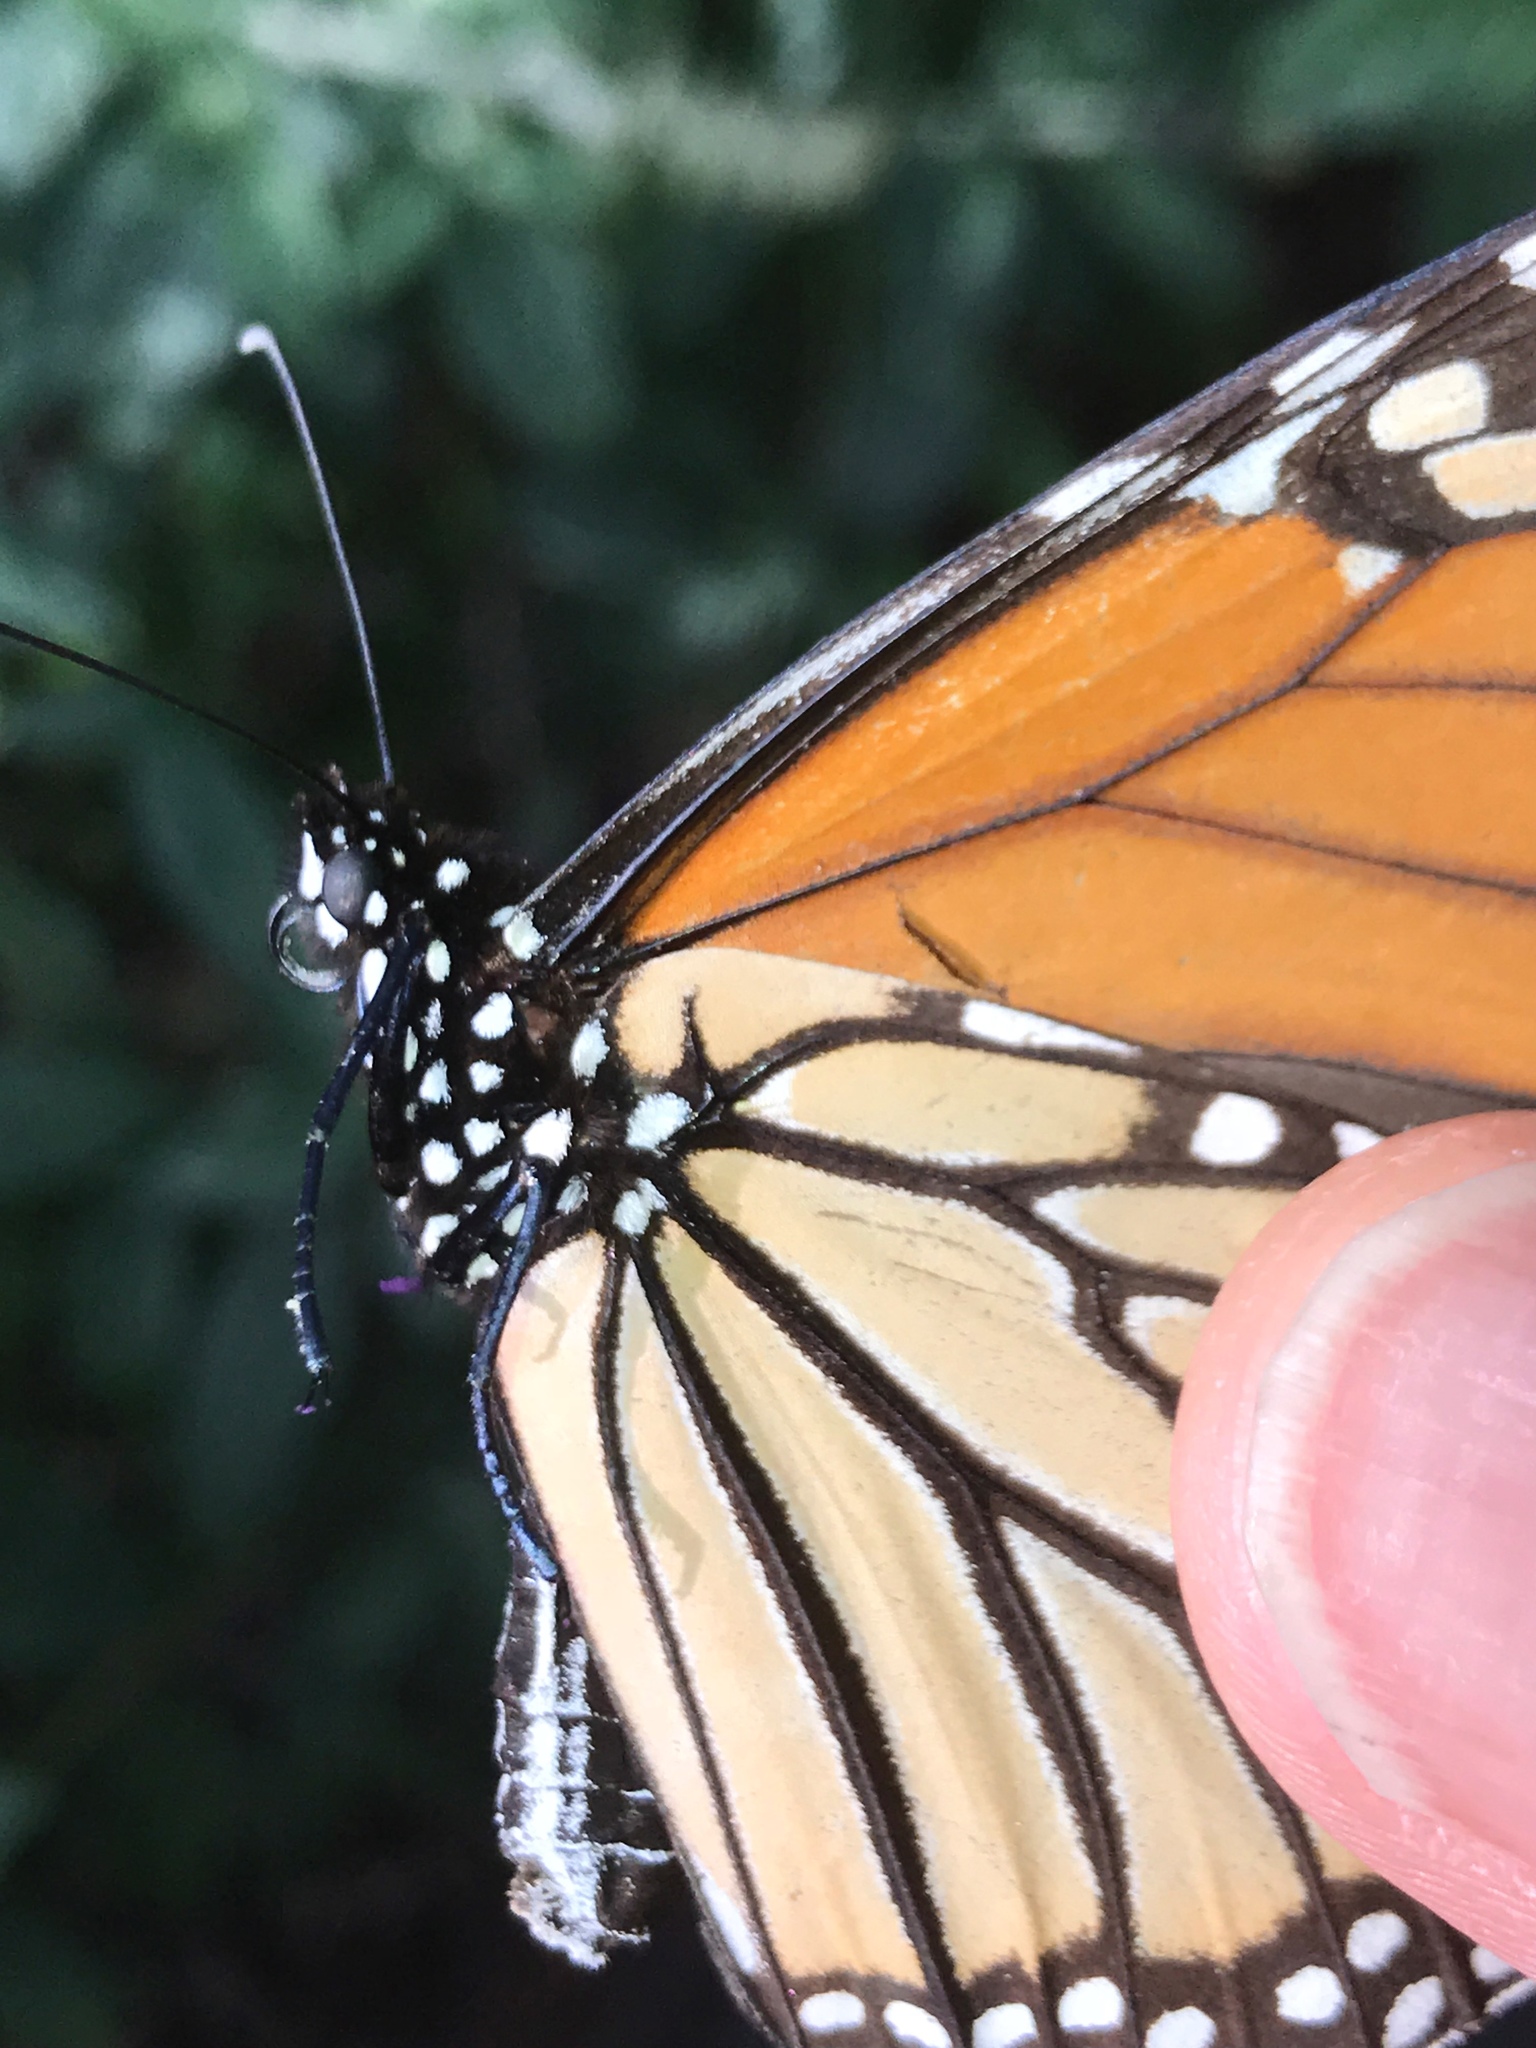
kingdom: Animalia
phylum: Arthropoda
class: Insecta
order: Lepidoptera
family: Nymphalidae
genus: Danaus
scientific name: Danaus plexippus
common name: Monarch
